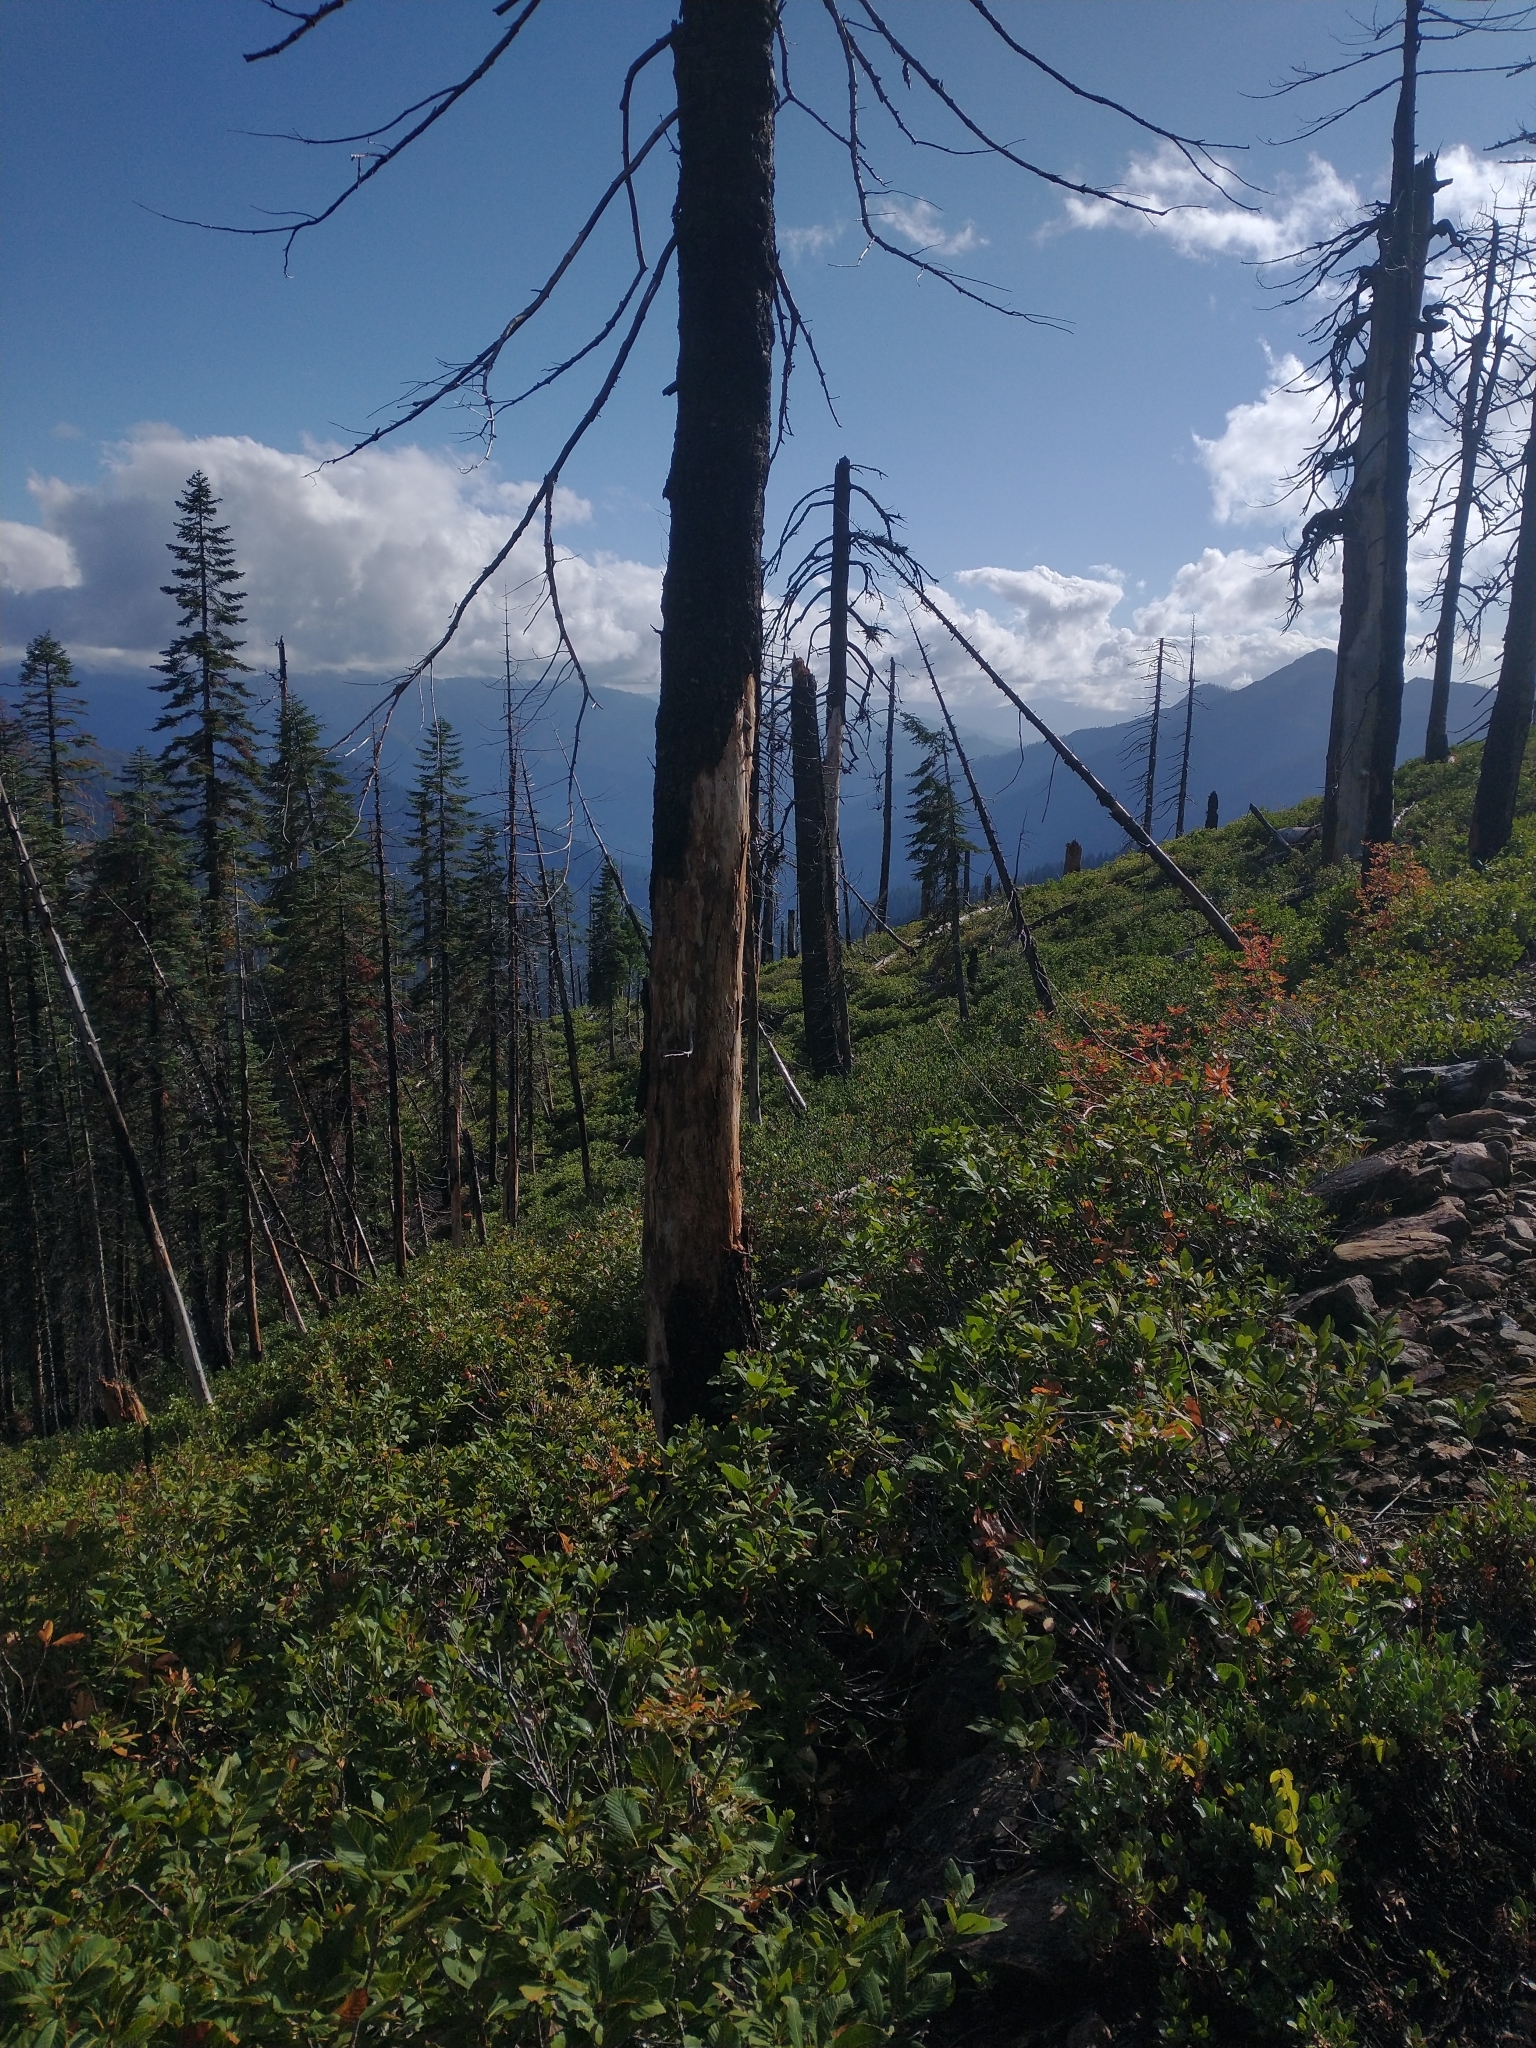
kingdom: Plantae
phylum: Tracheophyta
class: Magnoliopsida
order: Fagales
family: Fagaceae
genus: Quercus
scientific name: Quercus sadleriana
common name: Deer oak
